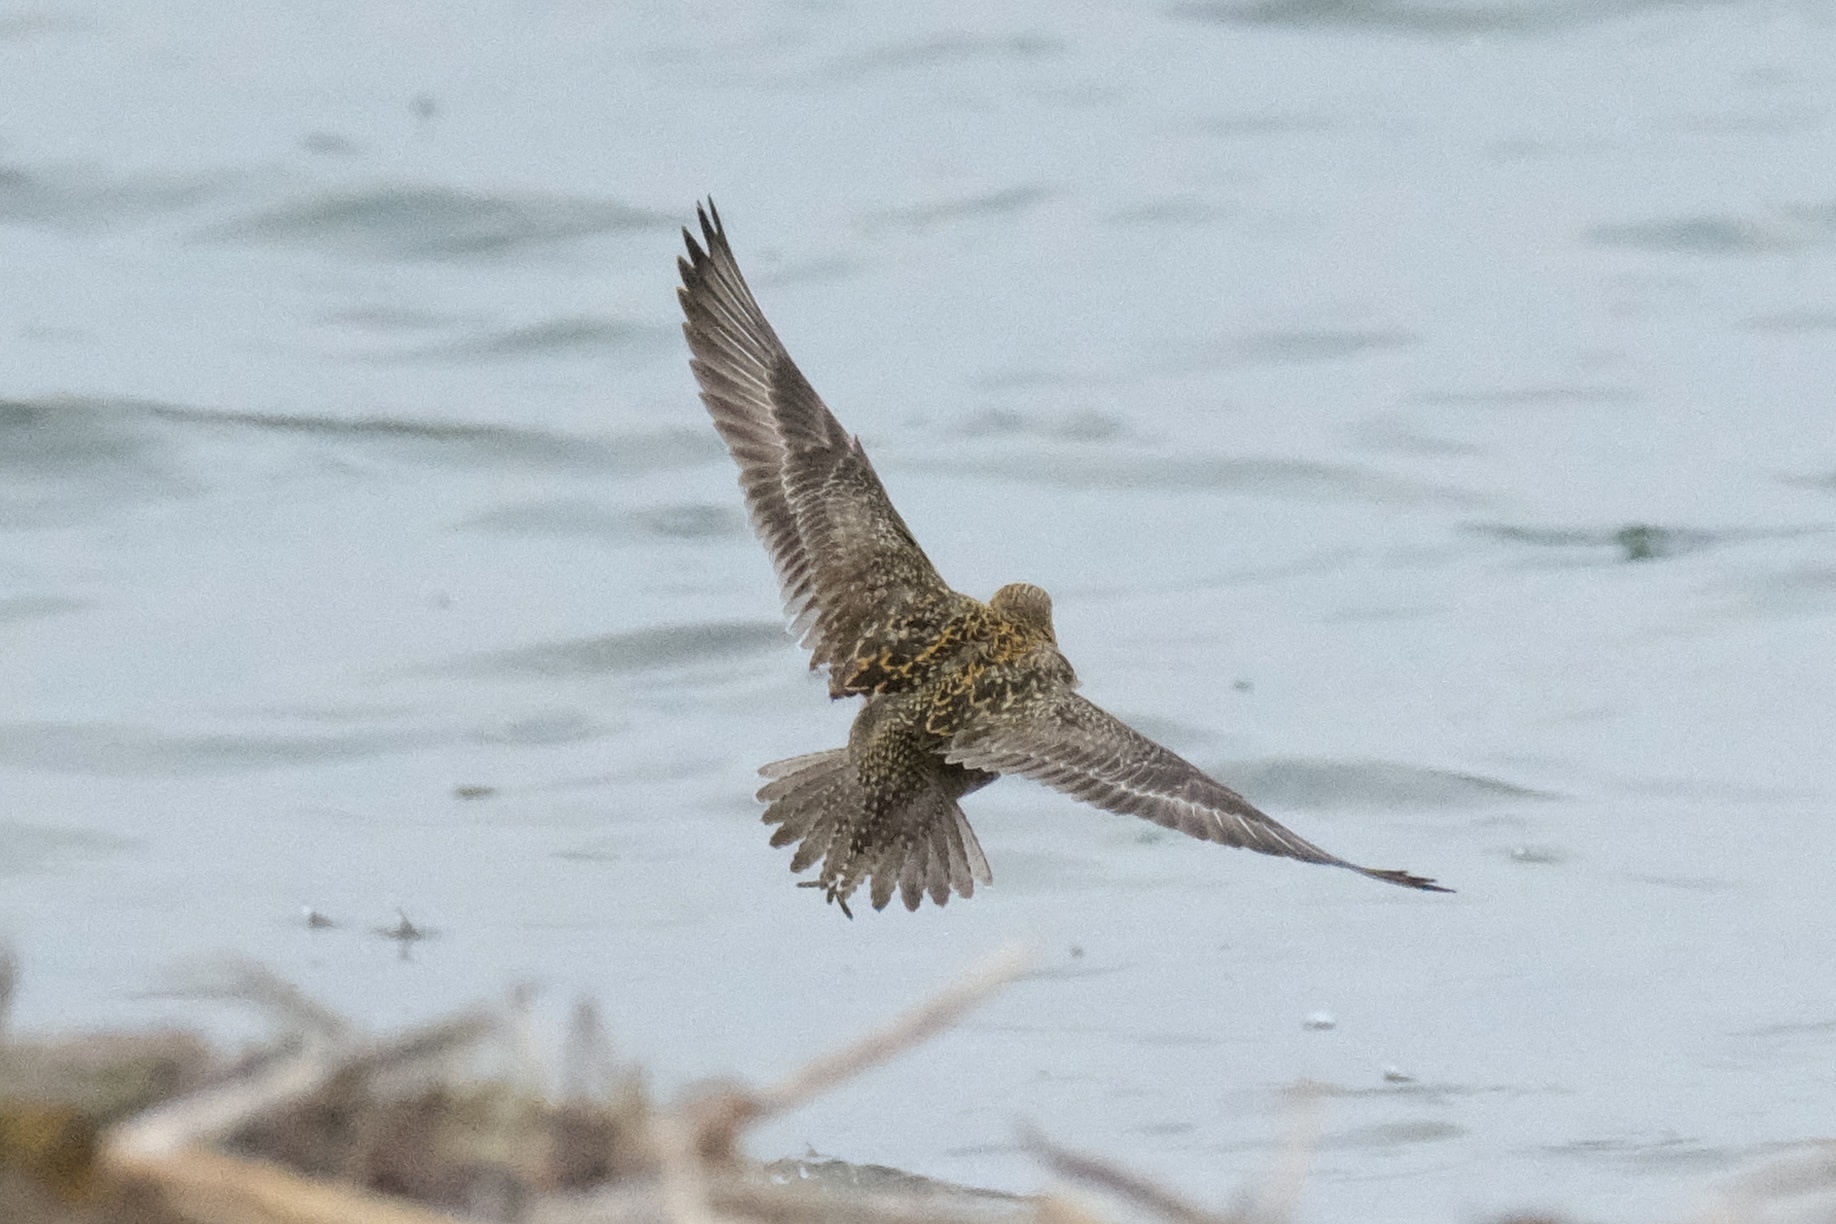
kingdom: Animalia
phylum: Chordata
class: Aves
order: Charadriiformes
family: Charadriidae
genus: Pluvialis
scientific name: Pluvialis fulva
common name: Pacific golden plover
